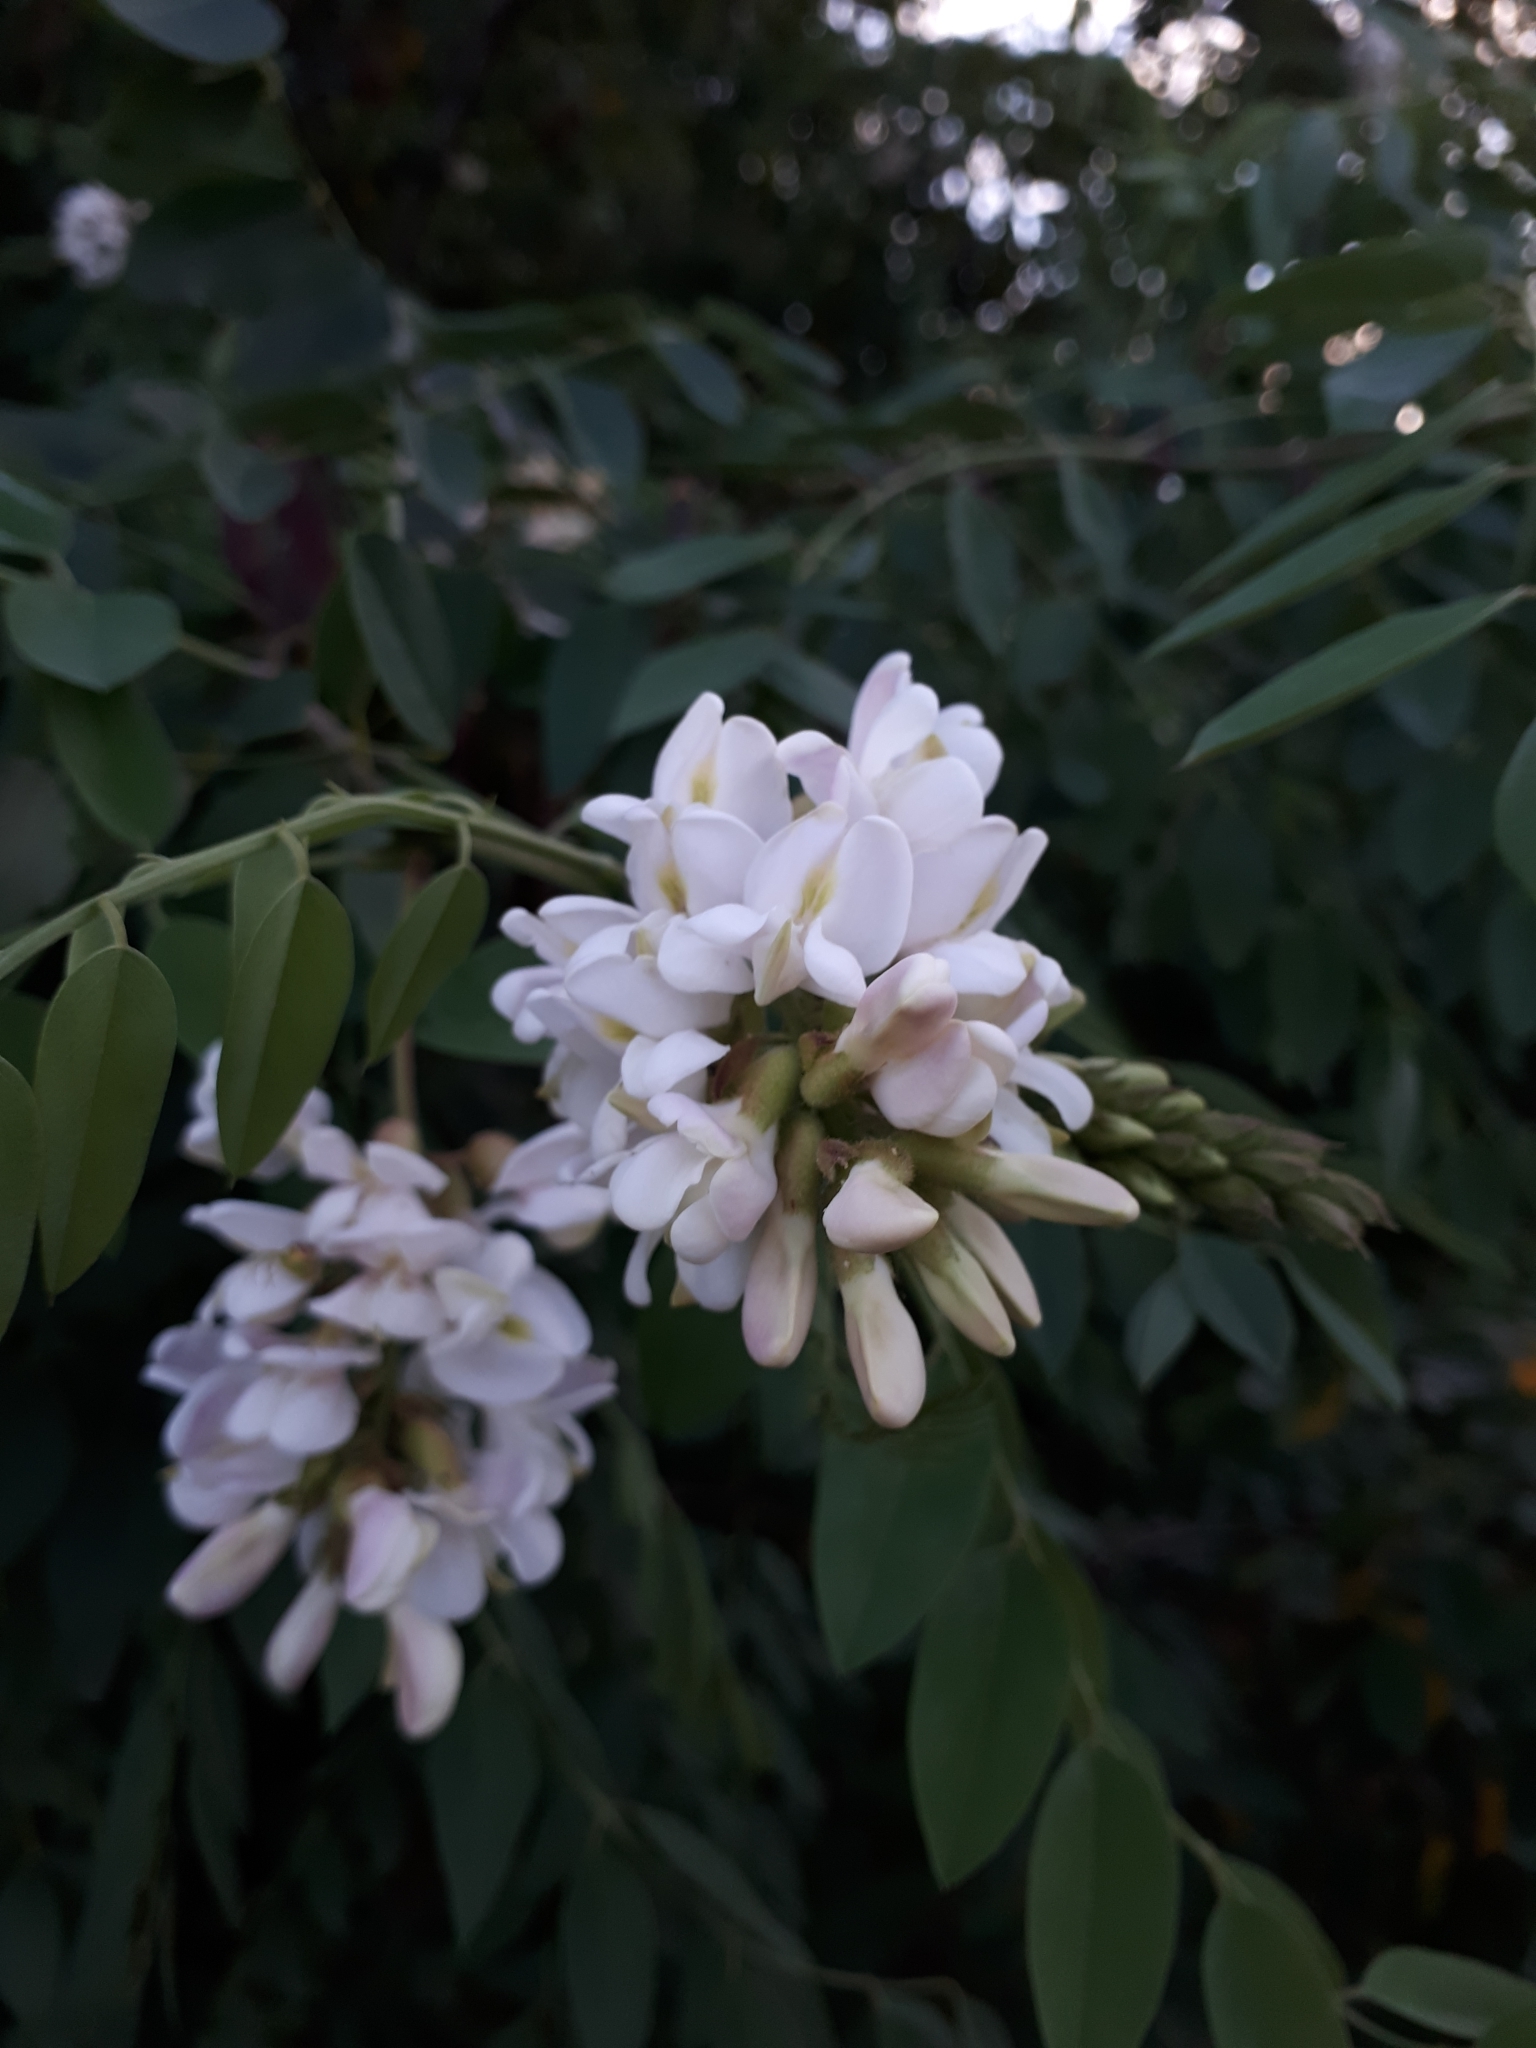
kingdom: Plantae
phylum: Tracheophyta
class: Magnoliopsida
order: Fabales
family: Fabaceae
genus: Robinia
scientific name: Robinia pseudoacacia
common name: Black locust
